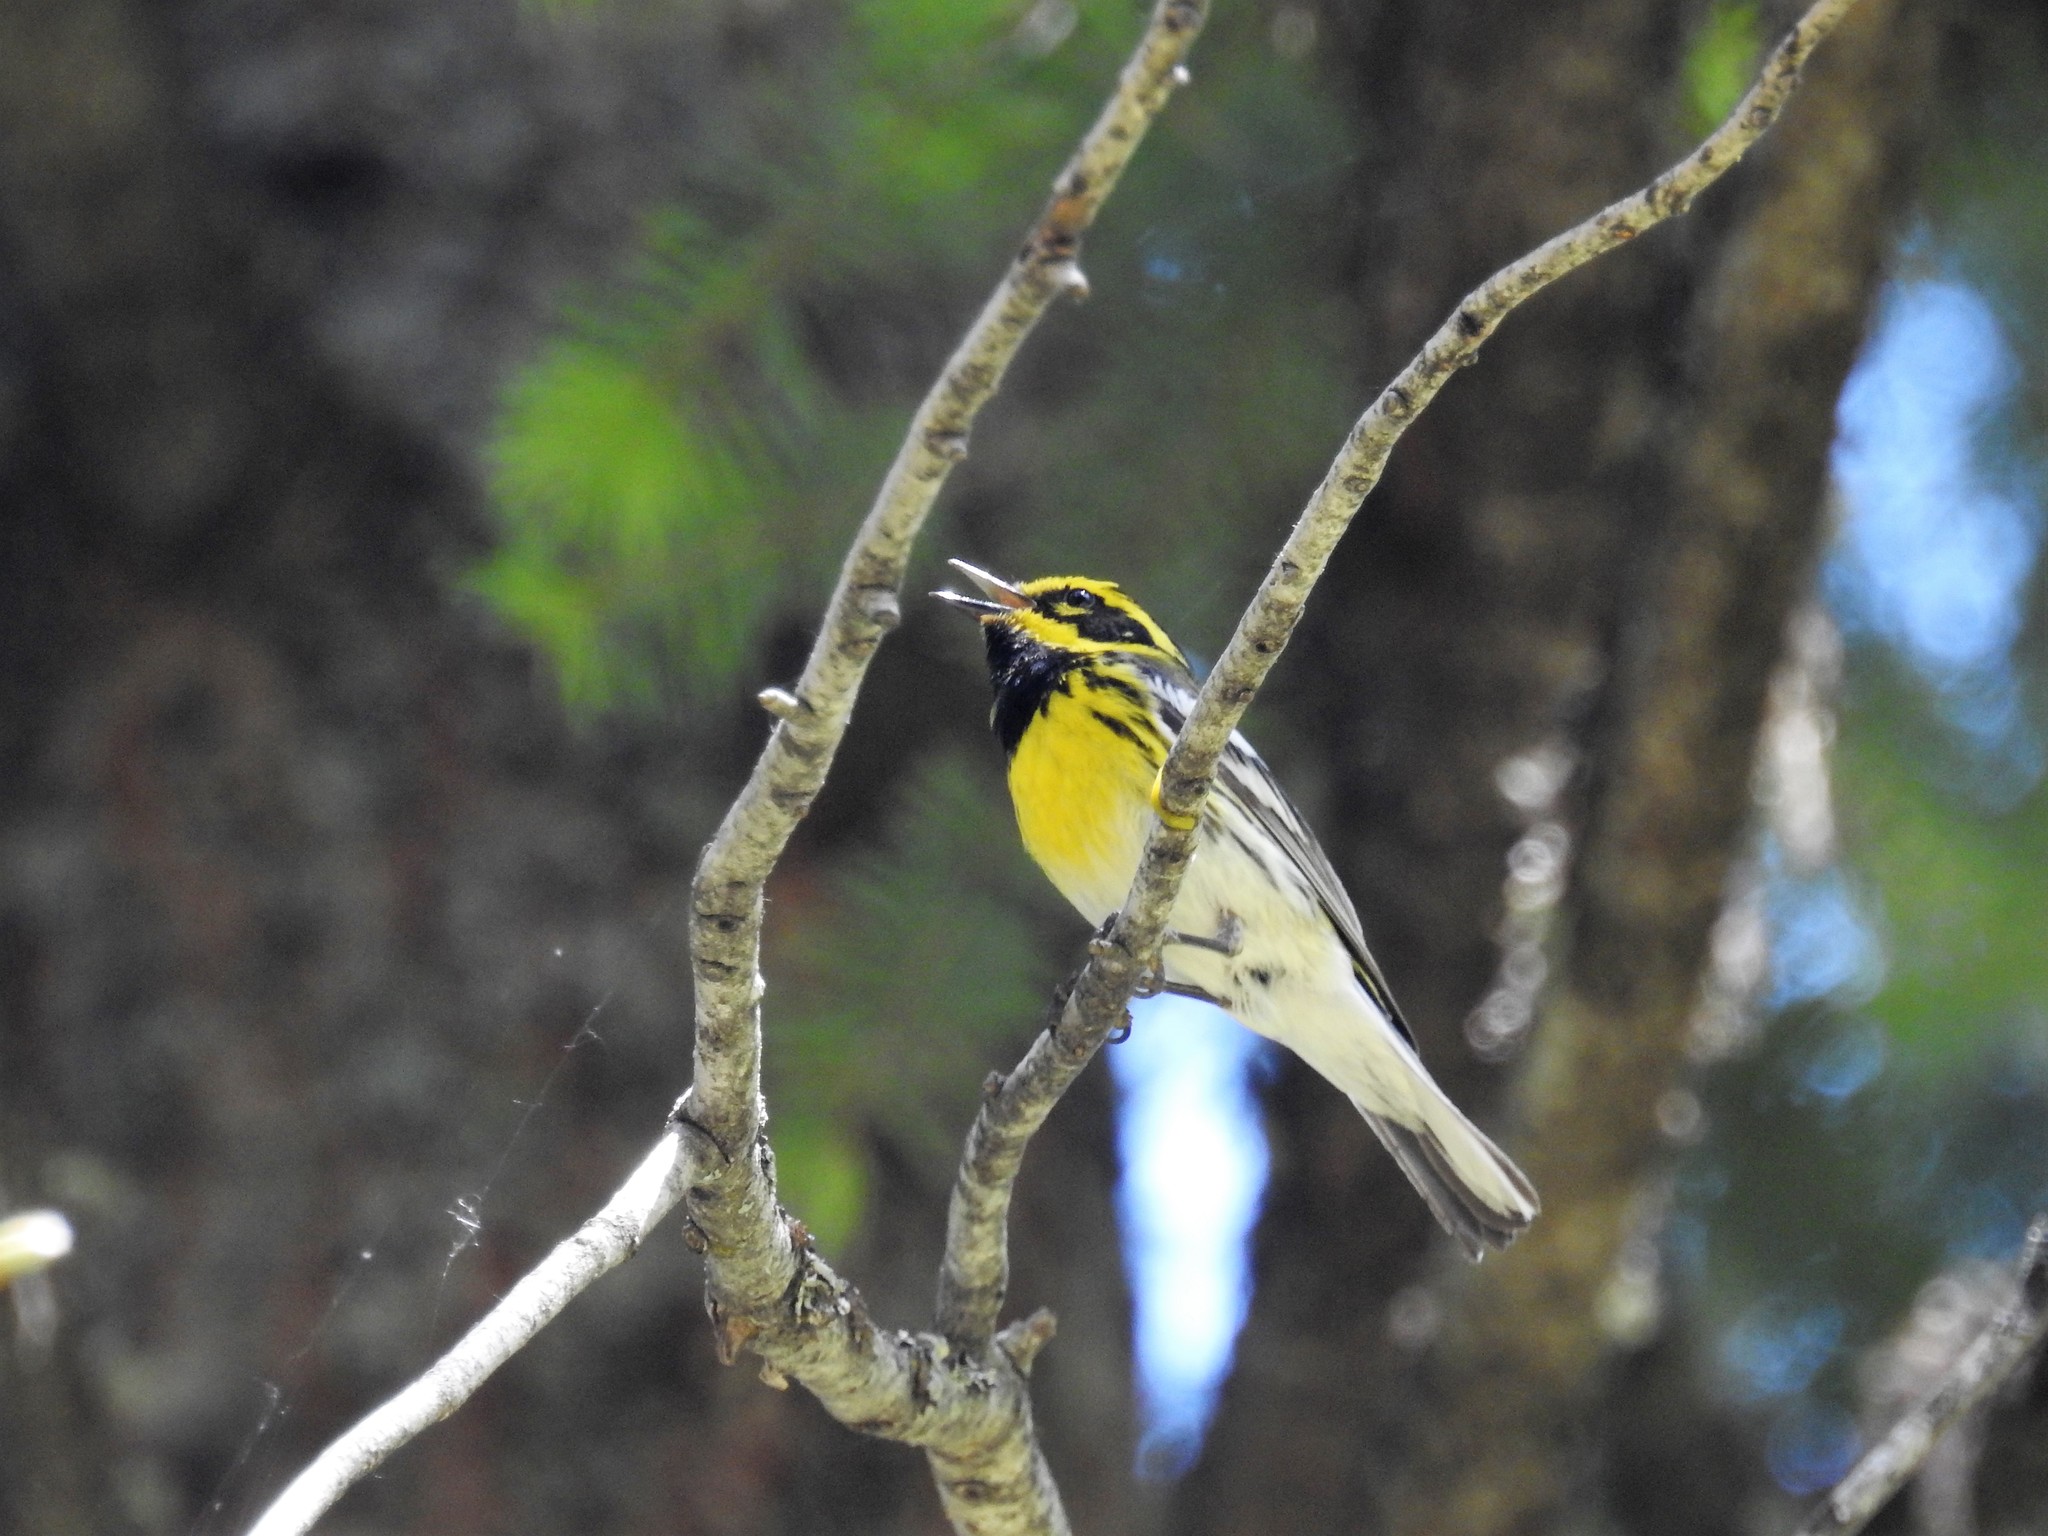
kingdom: Animalia
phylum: Chordata
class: Aves
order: Passeriformes
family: Parulidae
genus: Setophaga
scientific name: Setophaga townsendi
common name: Townsend's warbler
